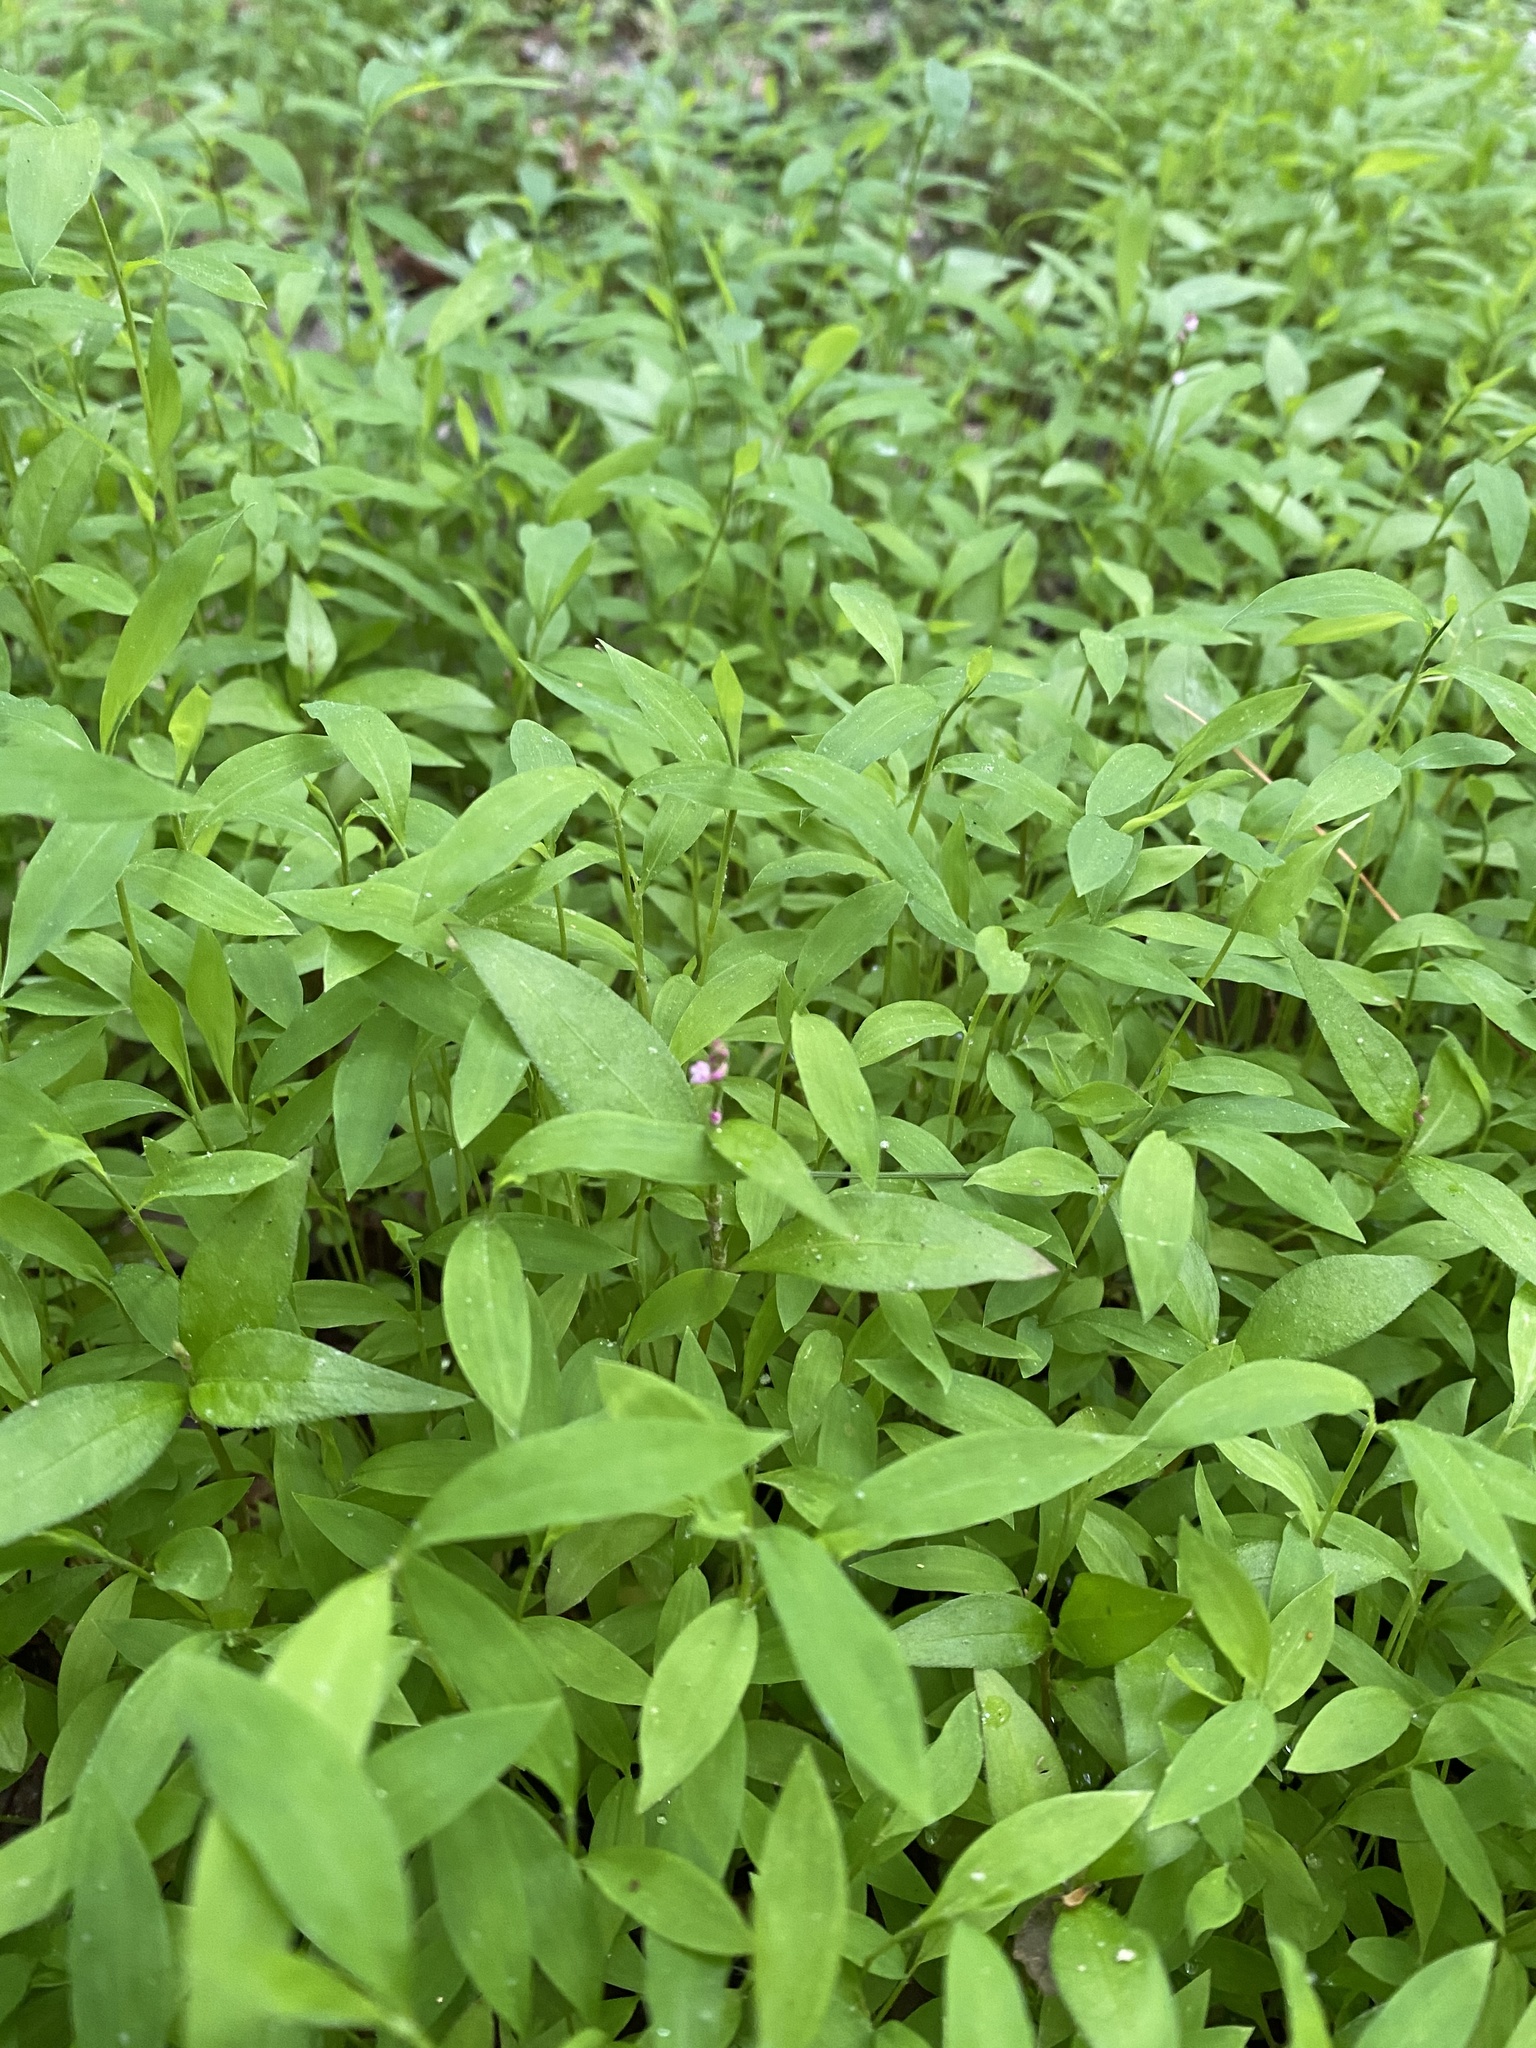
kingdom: Plantae
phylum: Tracheophyta
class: Liliopsida
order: Poales
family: Poaceae
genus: Microstegium
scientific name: Microstegium vimineum
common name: Japanese stiltgrass
